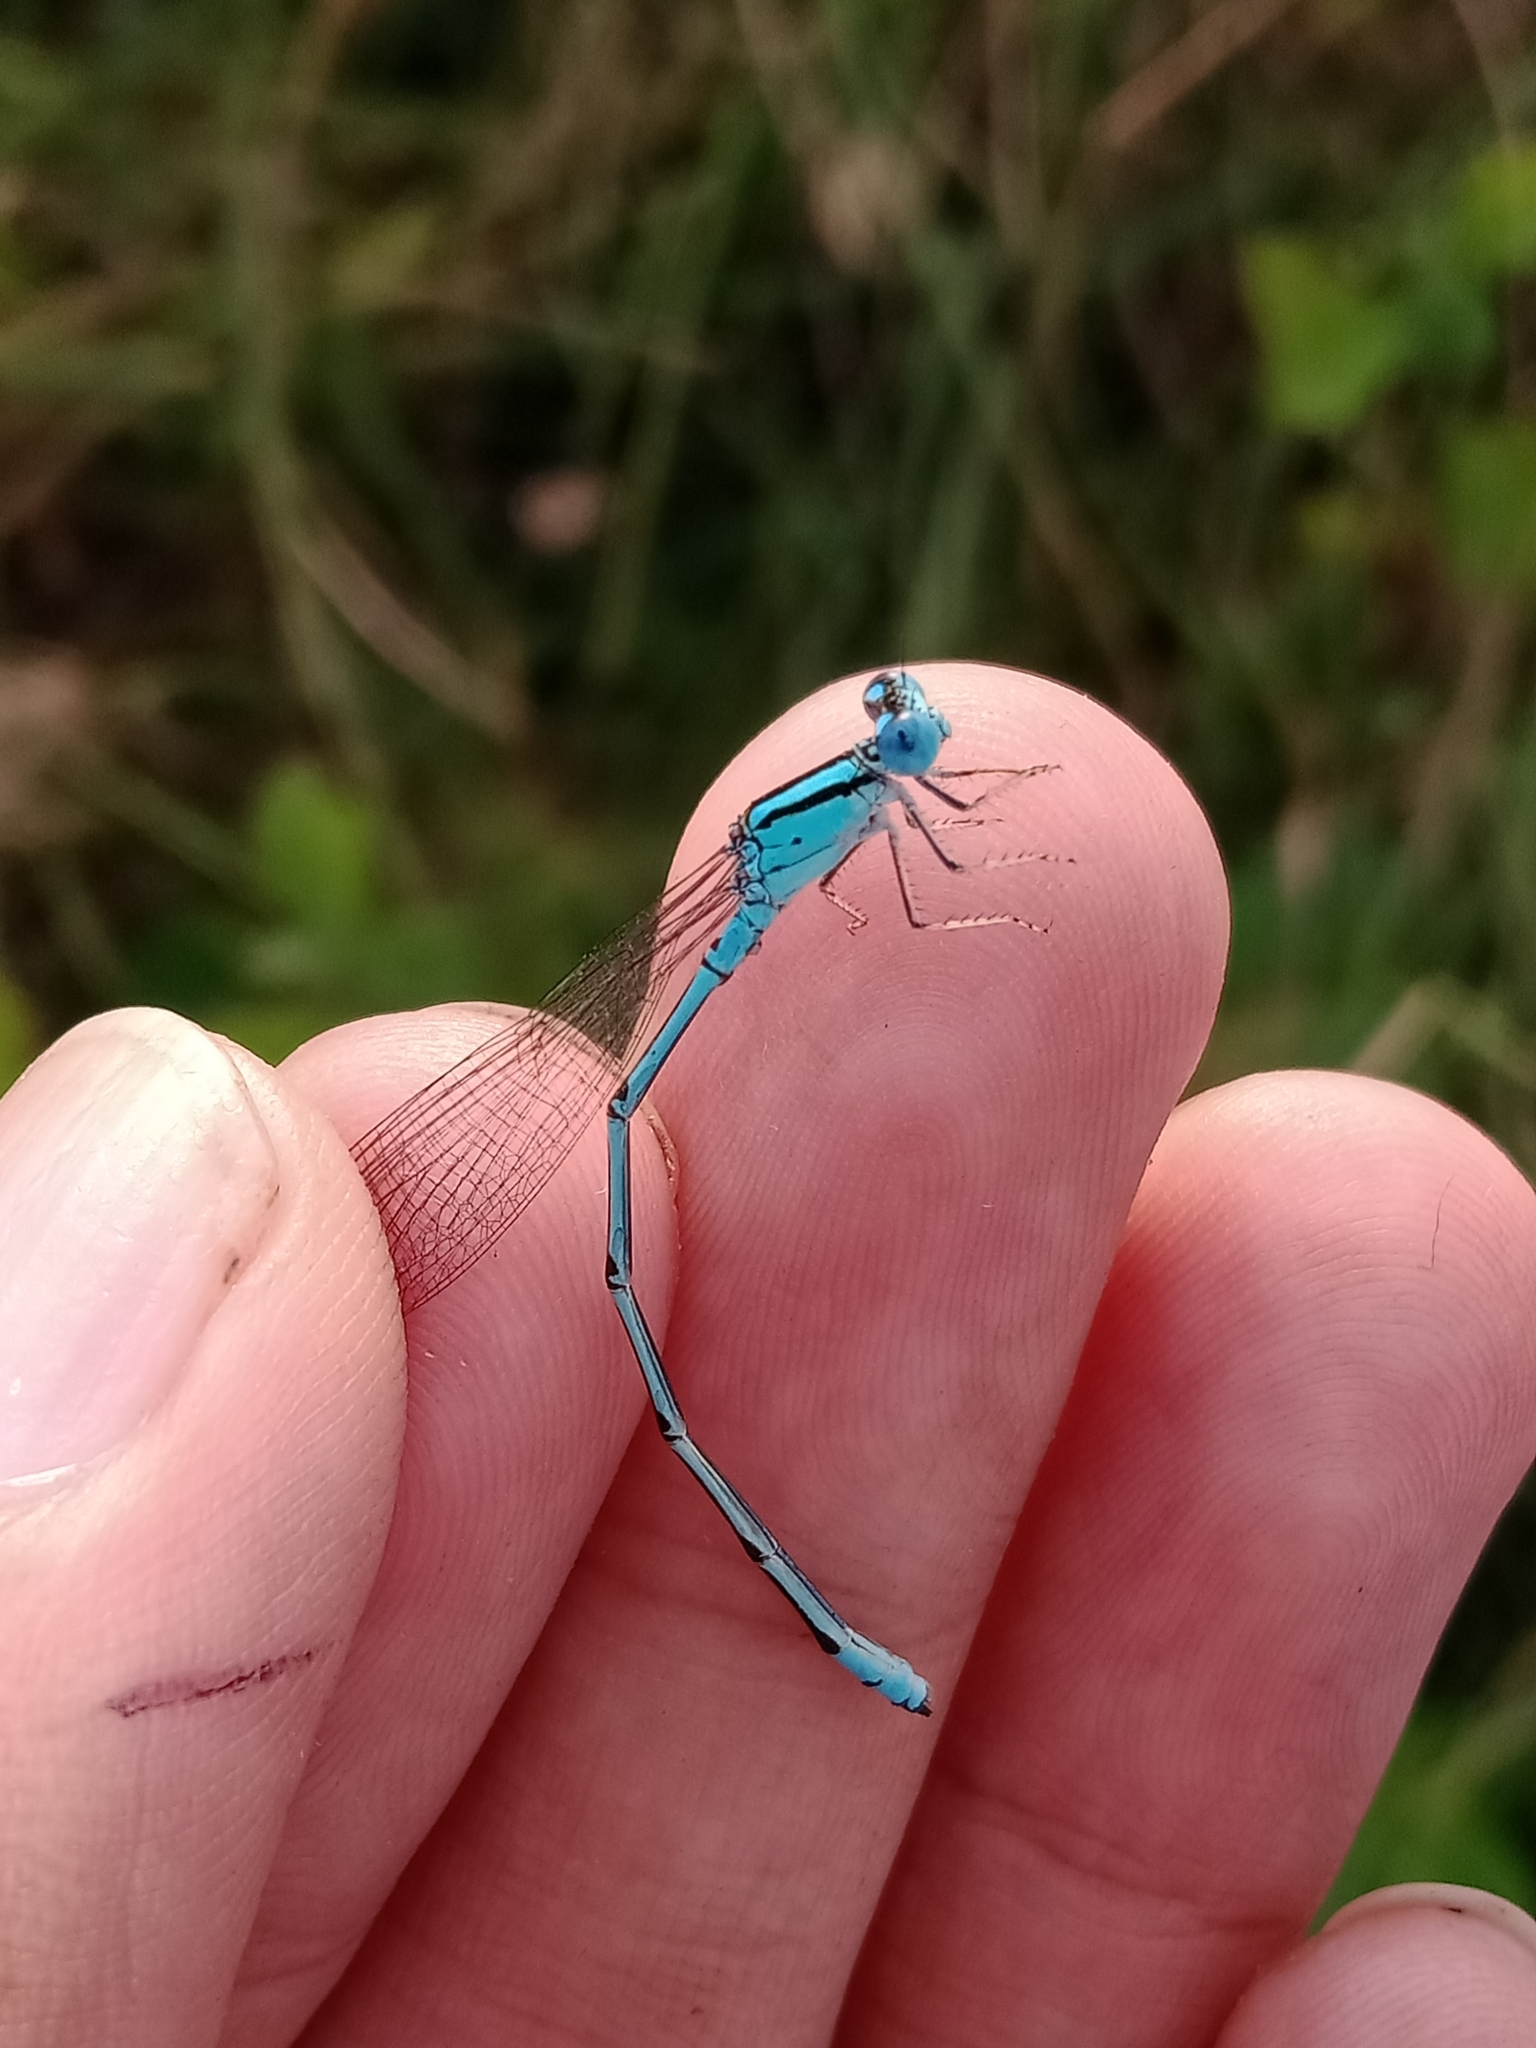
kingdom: Animalia
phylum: Arthropoda
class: Insecta
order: Odonata
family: Coenagrionidae
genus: Pseudagrion
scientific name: Pseudagrion microcephalum
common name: Blue riverdamsel
